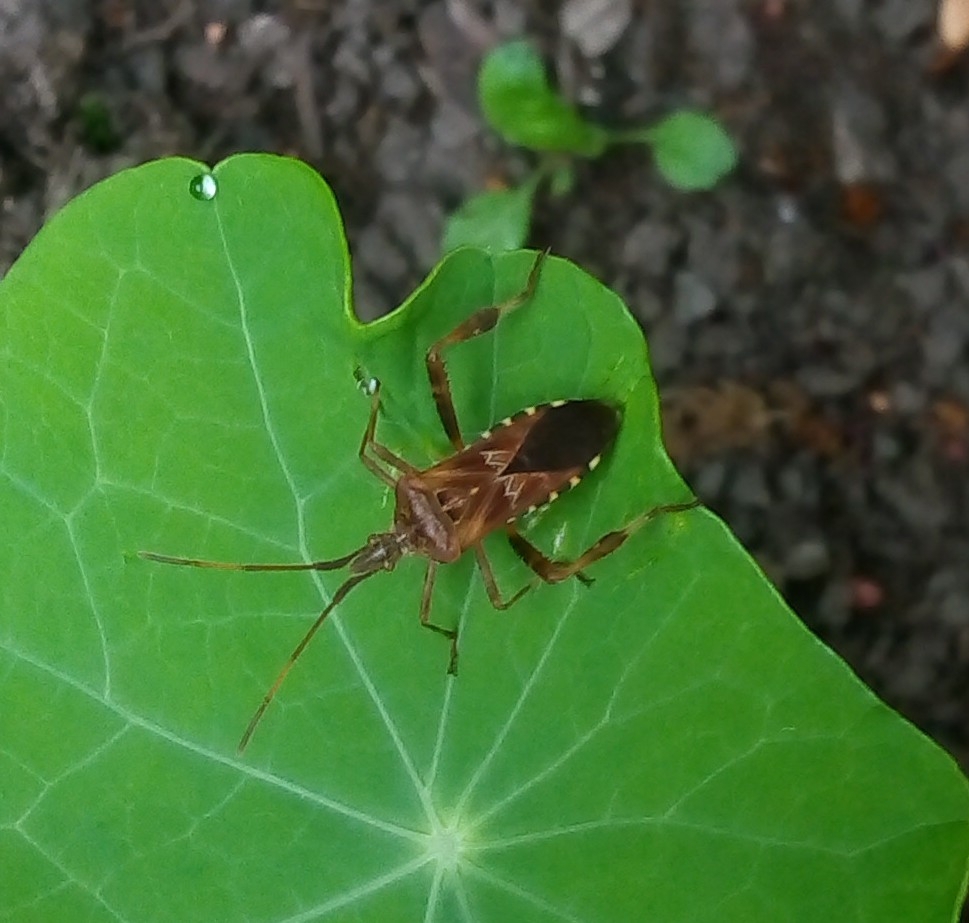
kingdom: Animalia
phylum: Arthropoda
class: Insecta
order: Hemiptera
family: Coreidae
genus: Leptoglossus
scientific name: Leptoglossus occidentalis
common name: Western conifer-seed bug
